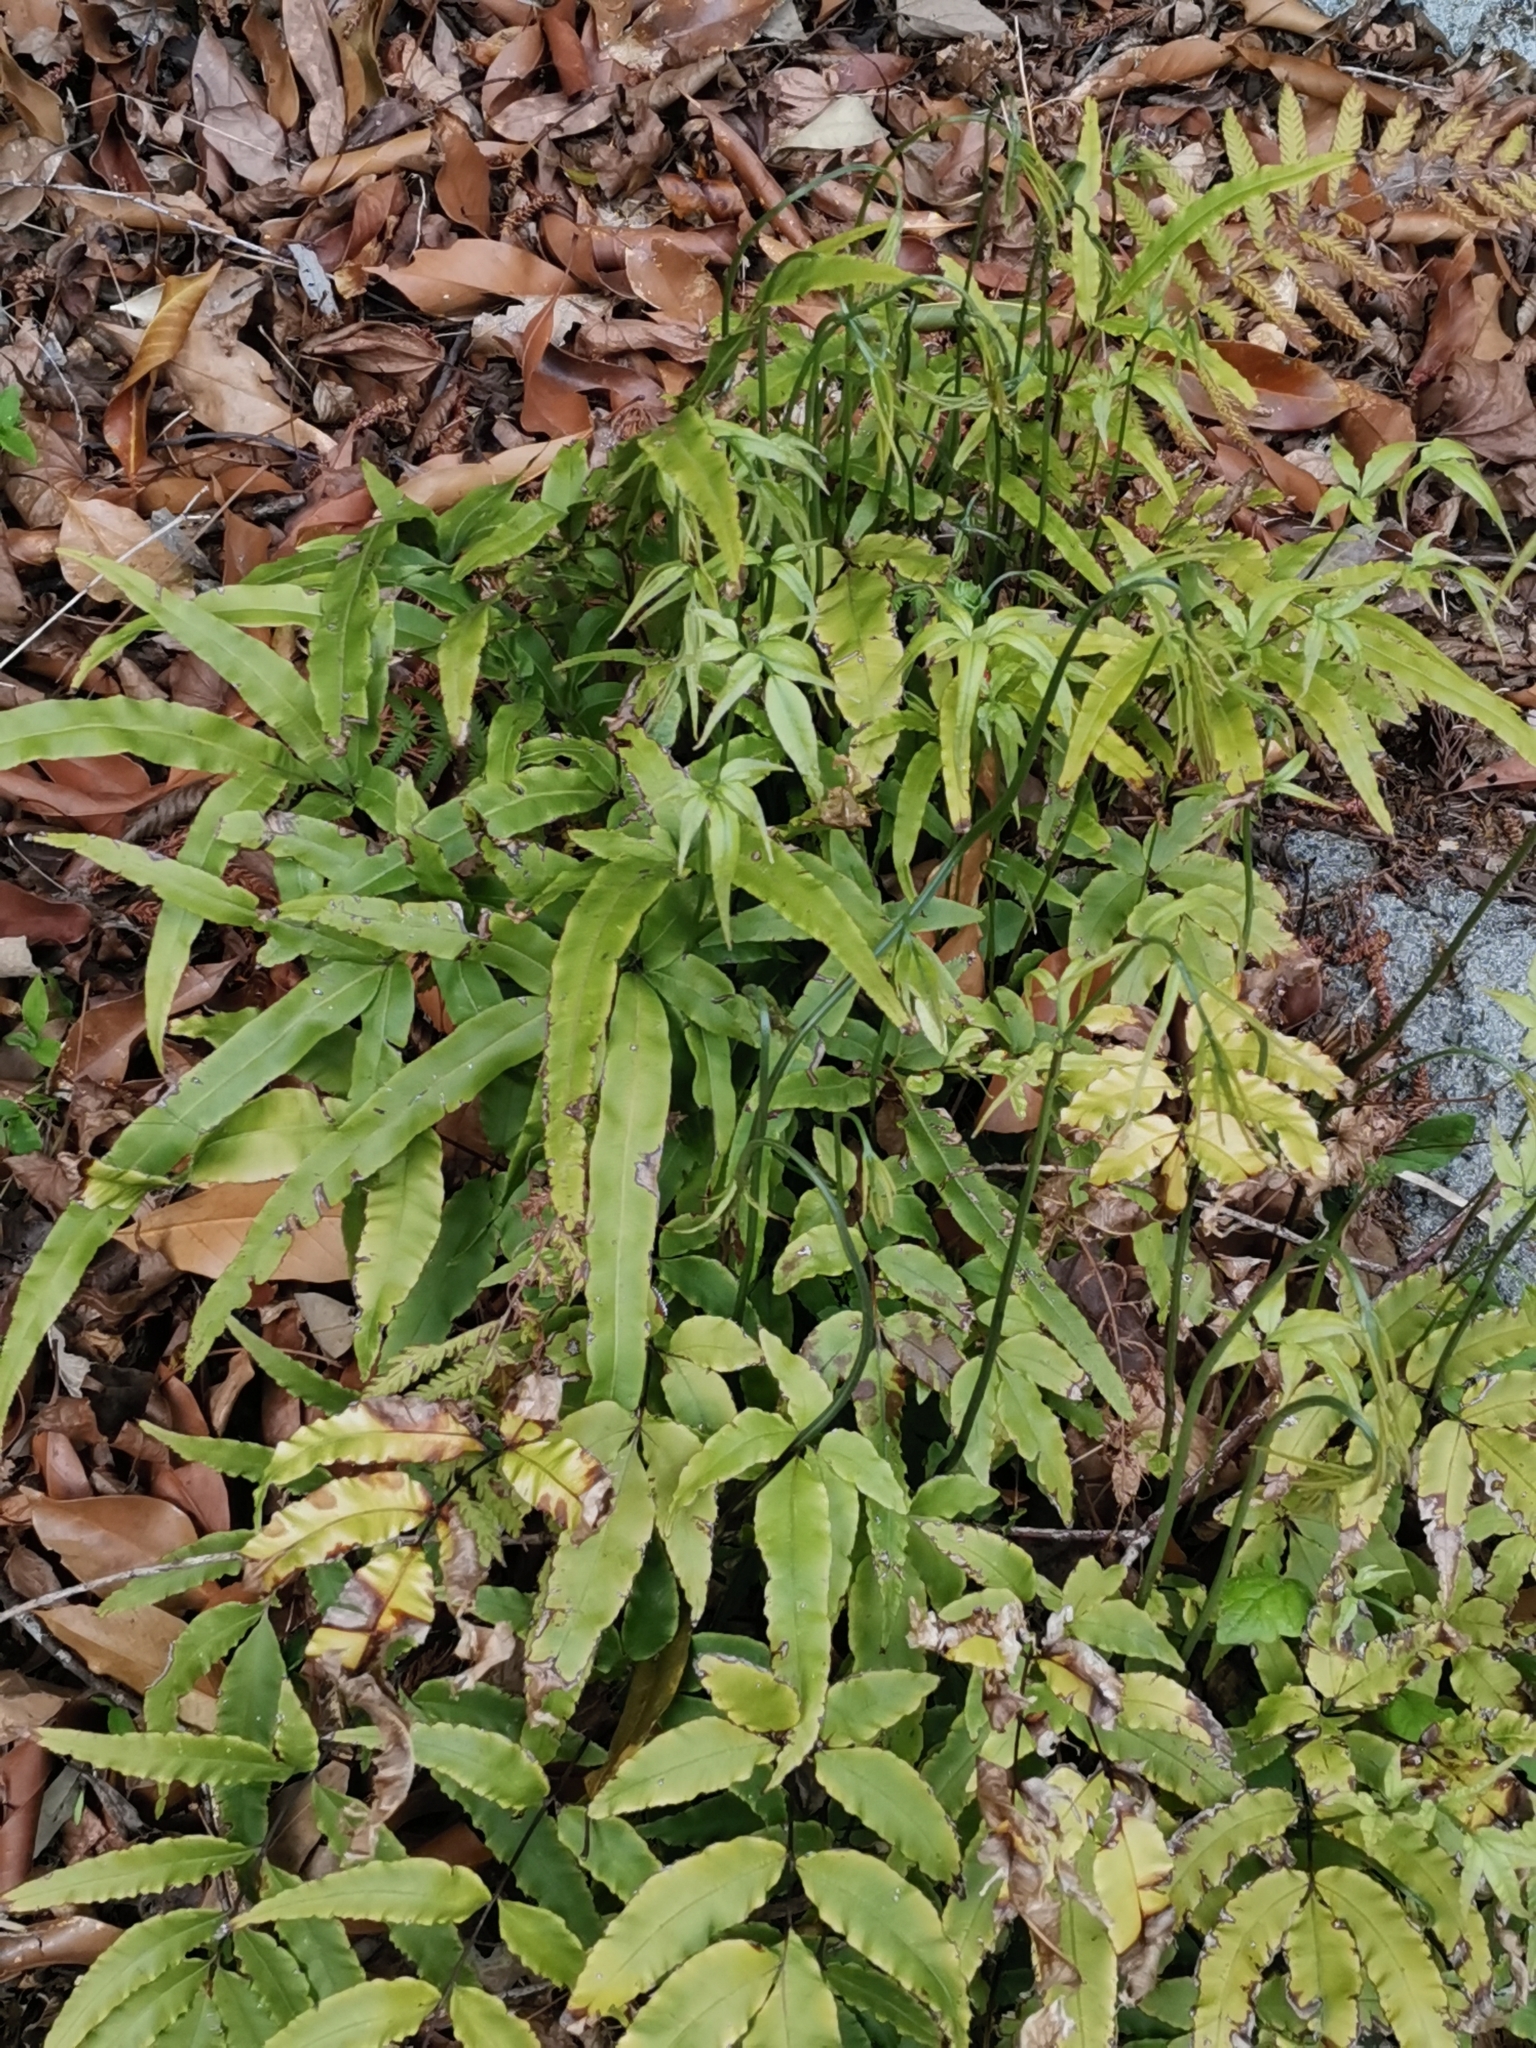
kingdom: Plantae
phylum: Tracheophyta
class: Polypodiopsida
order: Polypodiales
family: Pteridaceae
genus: Pteris
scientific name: Pteris cretica
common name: Ribbon fern
